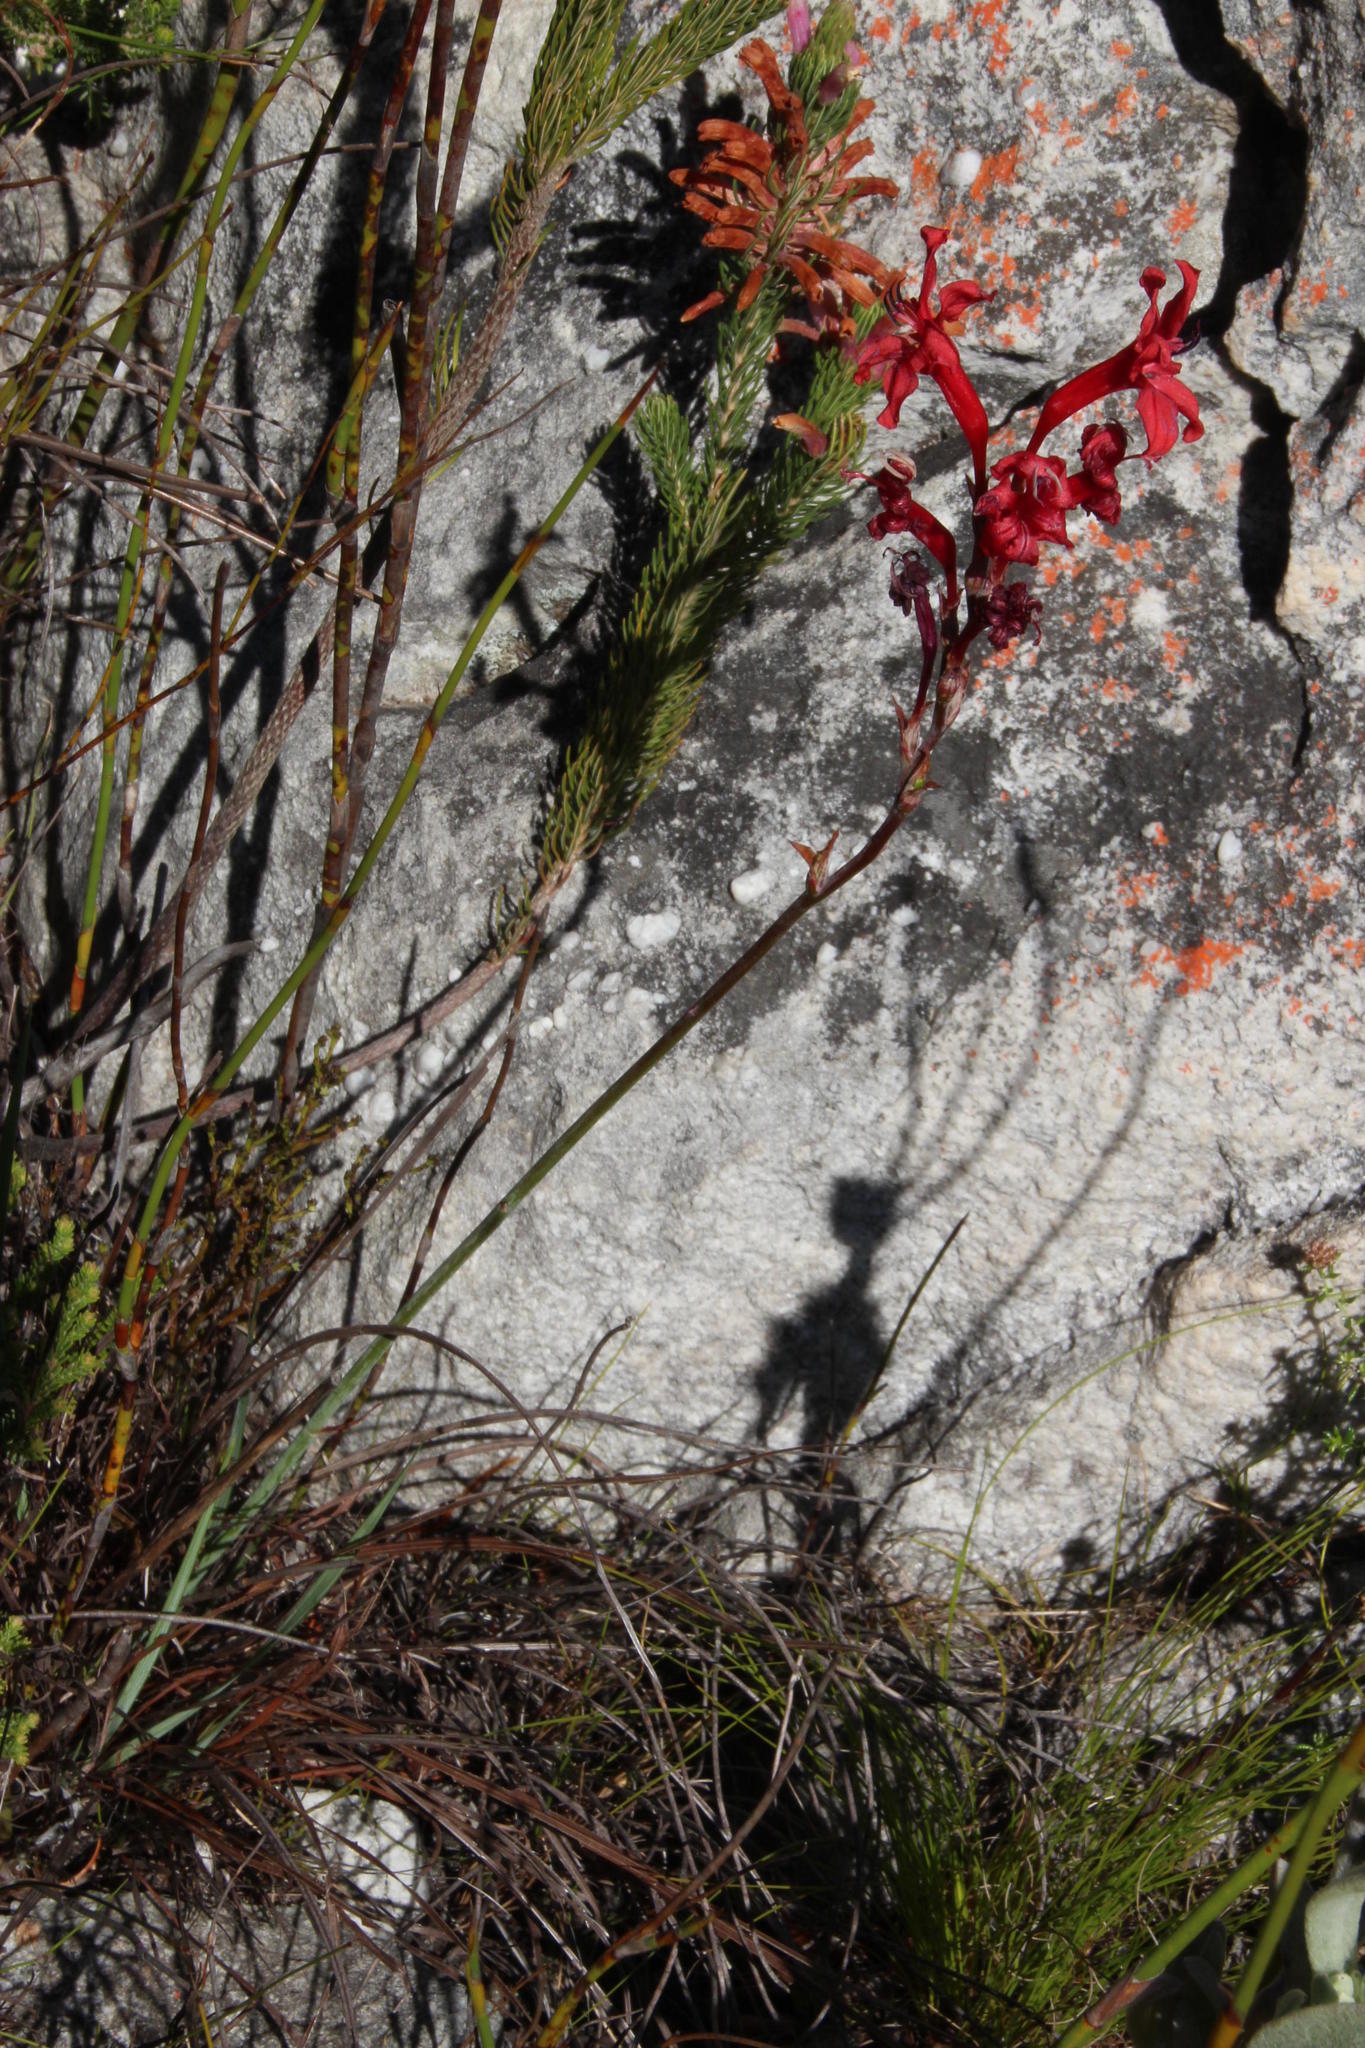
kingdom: Plantae
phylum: Tracheophyta
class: Liliopsida
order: Asparagales
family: Iridaceae
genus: Tritoniopsis
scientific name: Tritoniopsis pulchra
